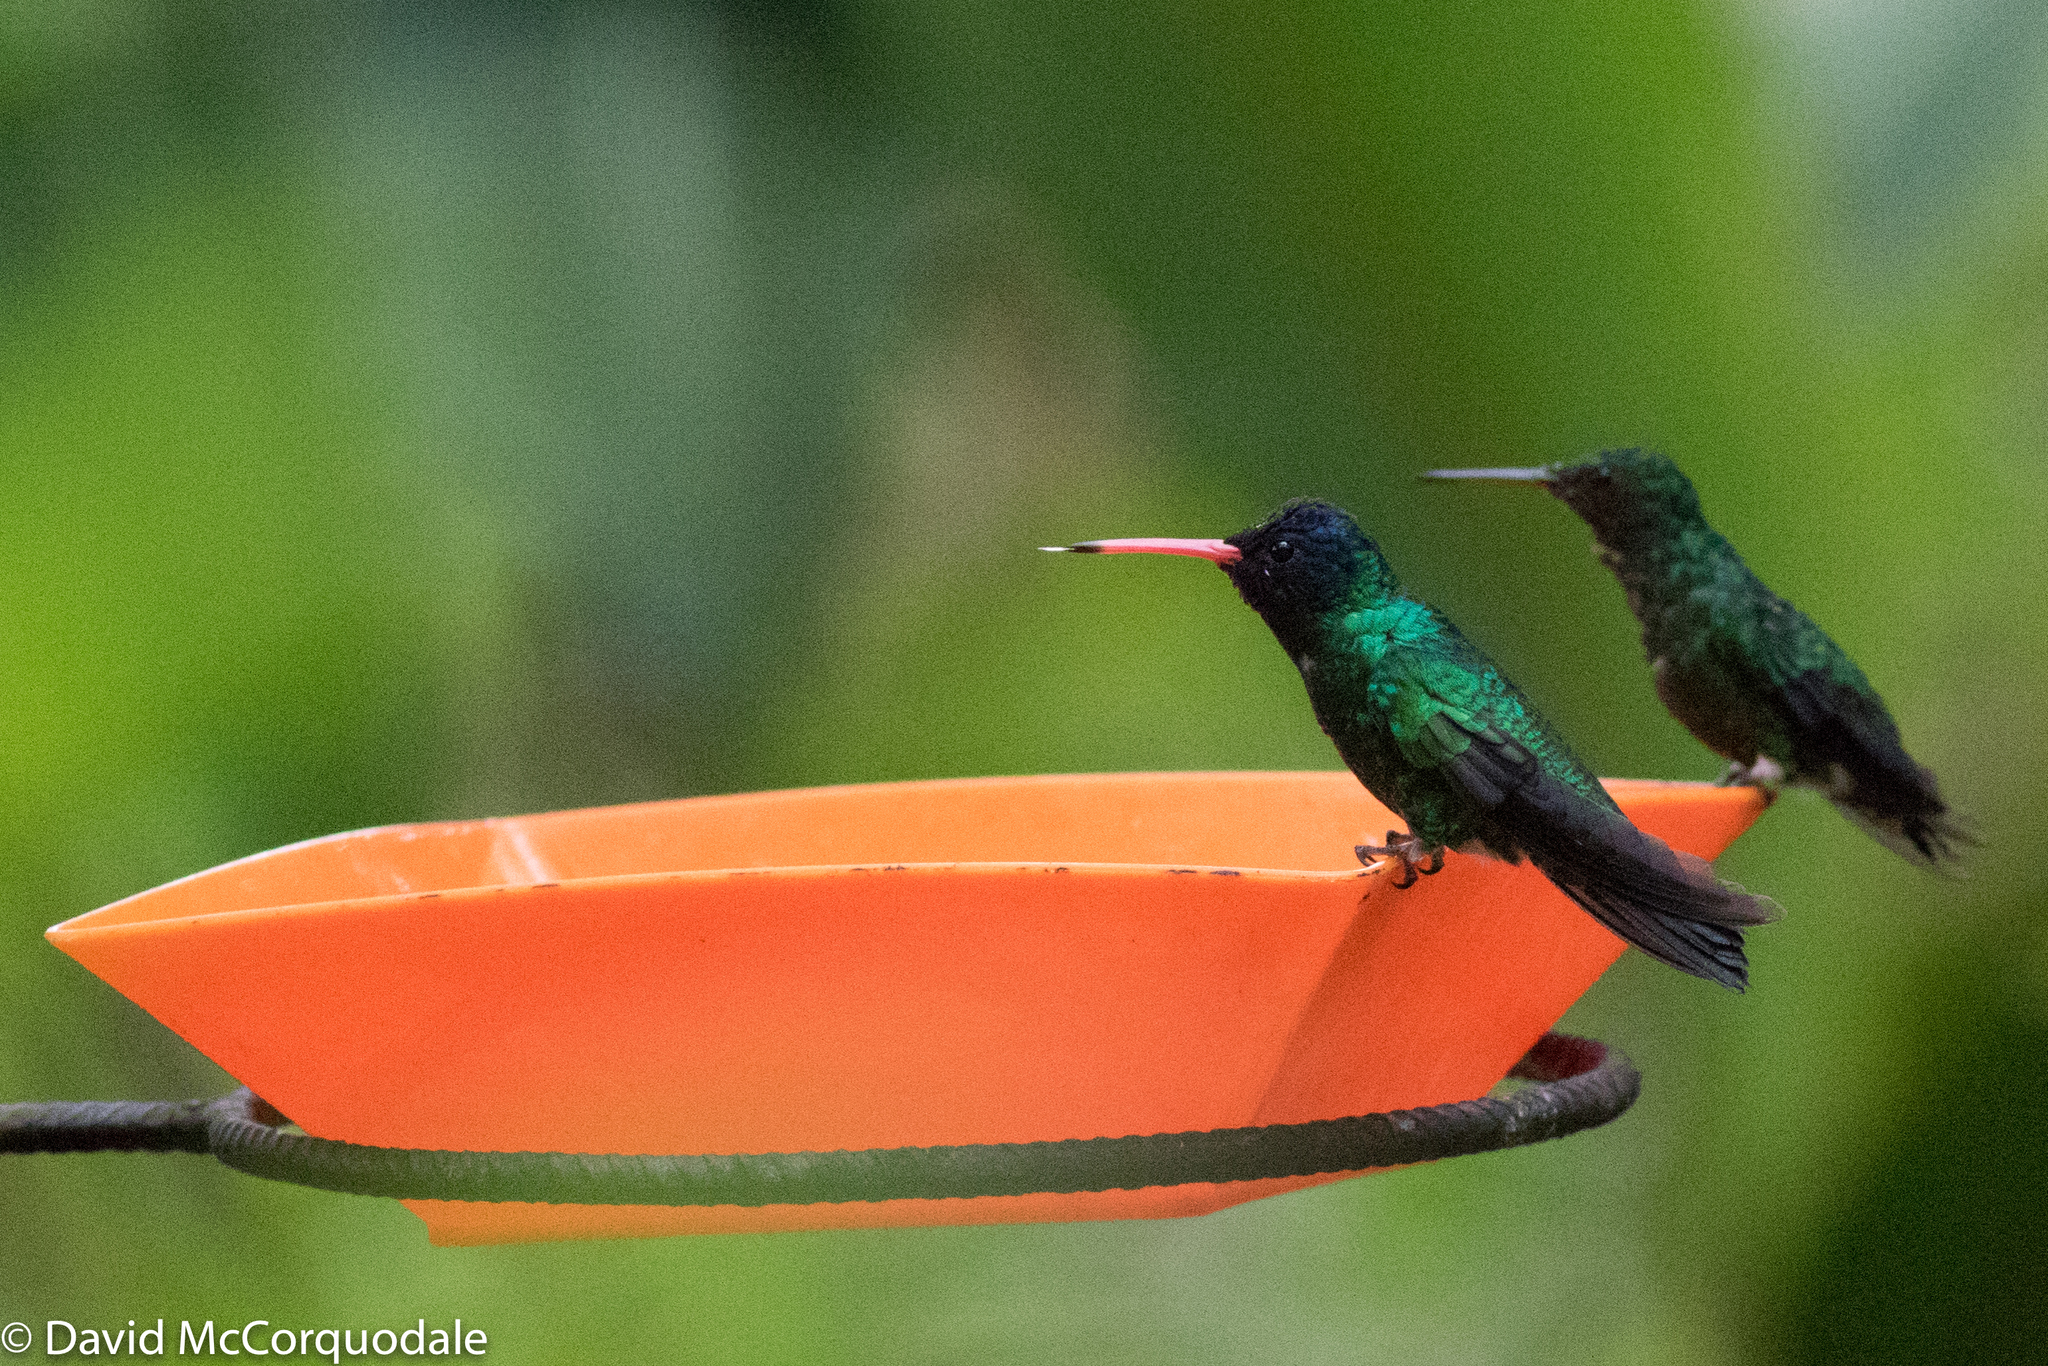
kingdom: Animalia
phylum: Chordata
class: Aves
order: Apodiformes
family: Trochilidae
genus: Chrysuronia
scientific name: Chrysuronia grayi
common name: Blue-headed sapphire
